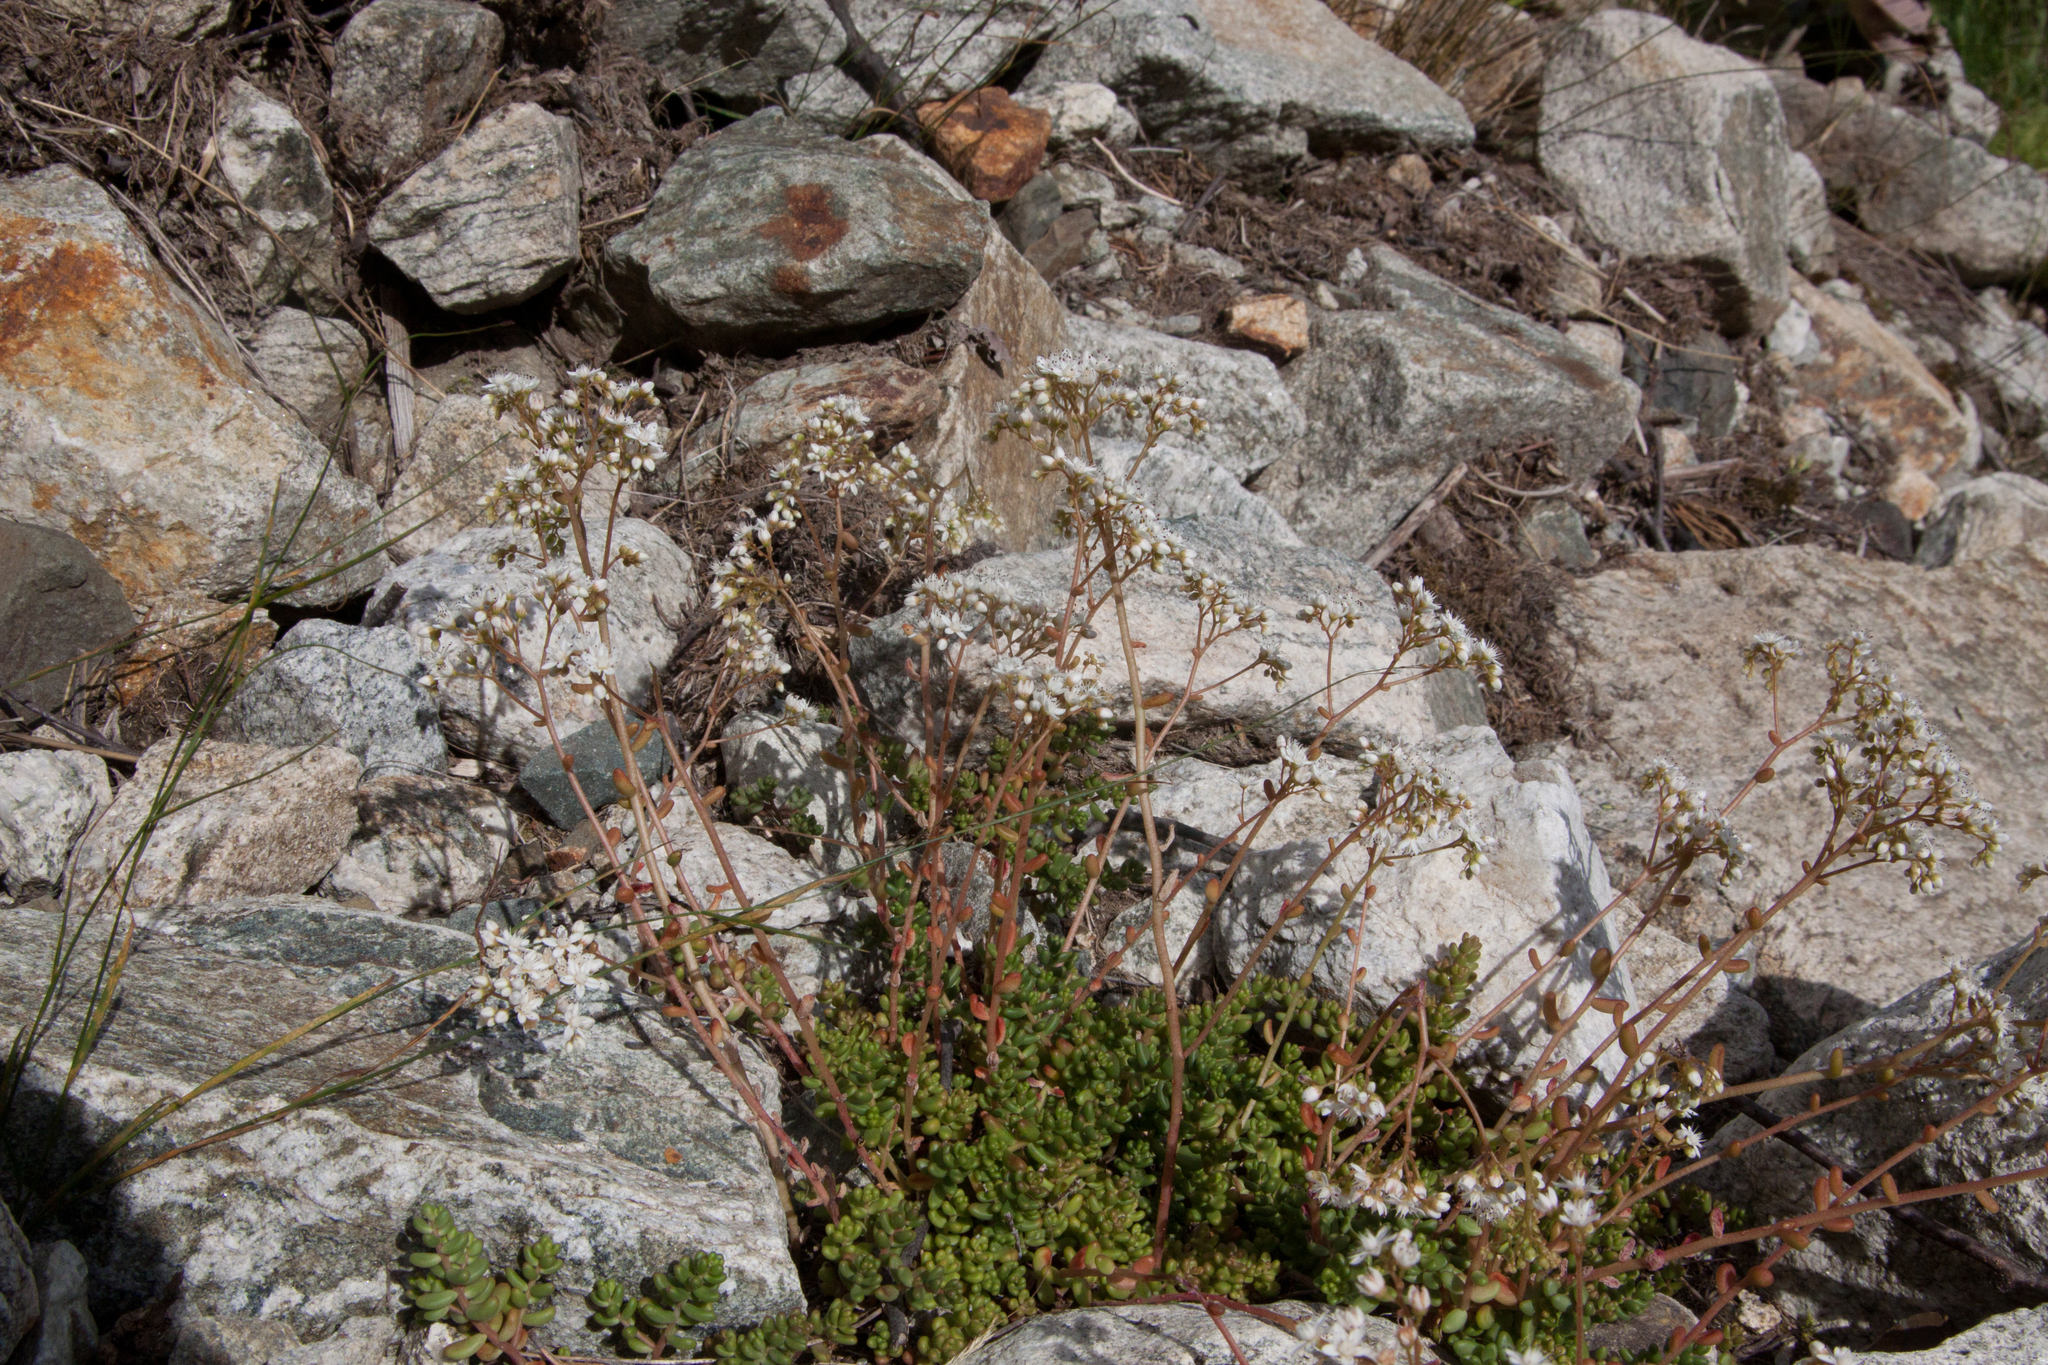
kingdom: Plantae
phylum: Tracheophyta
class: Magnoliopsida
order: Saxifragales
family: Crassulaceae
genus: Sedum
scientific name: Sedum album
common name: White stonecrop
